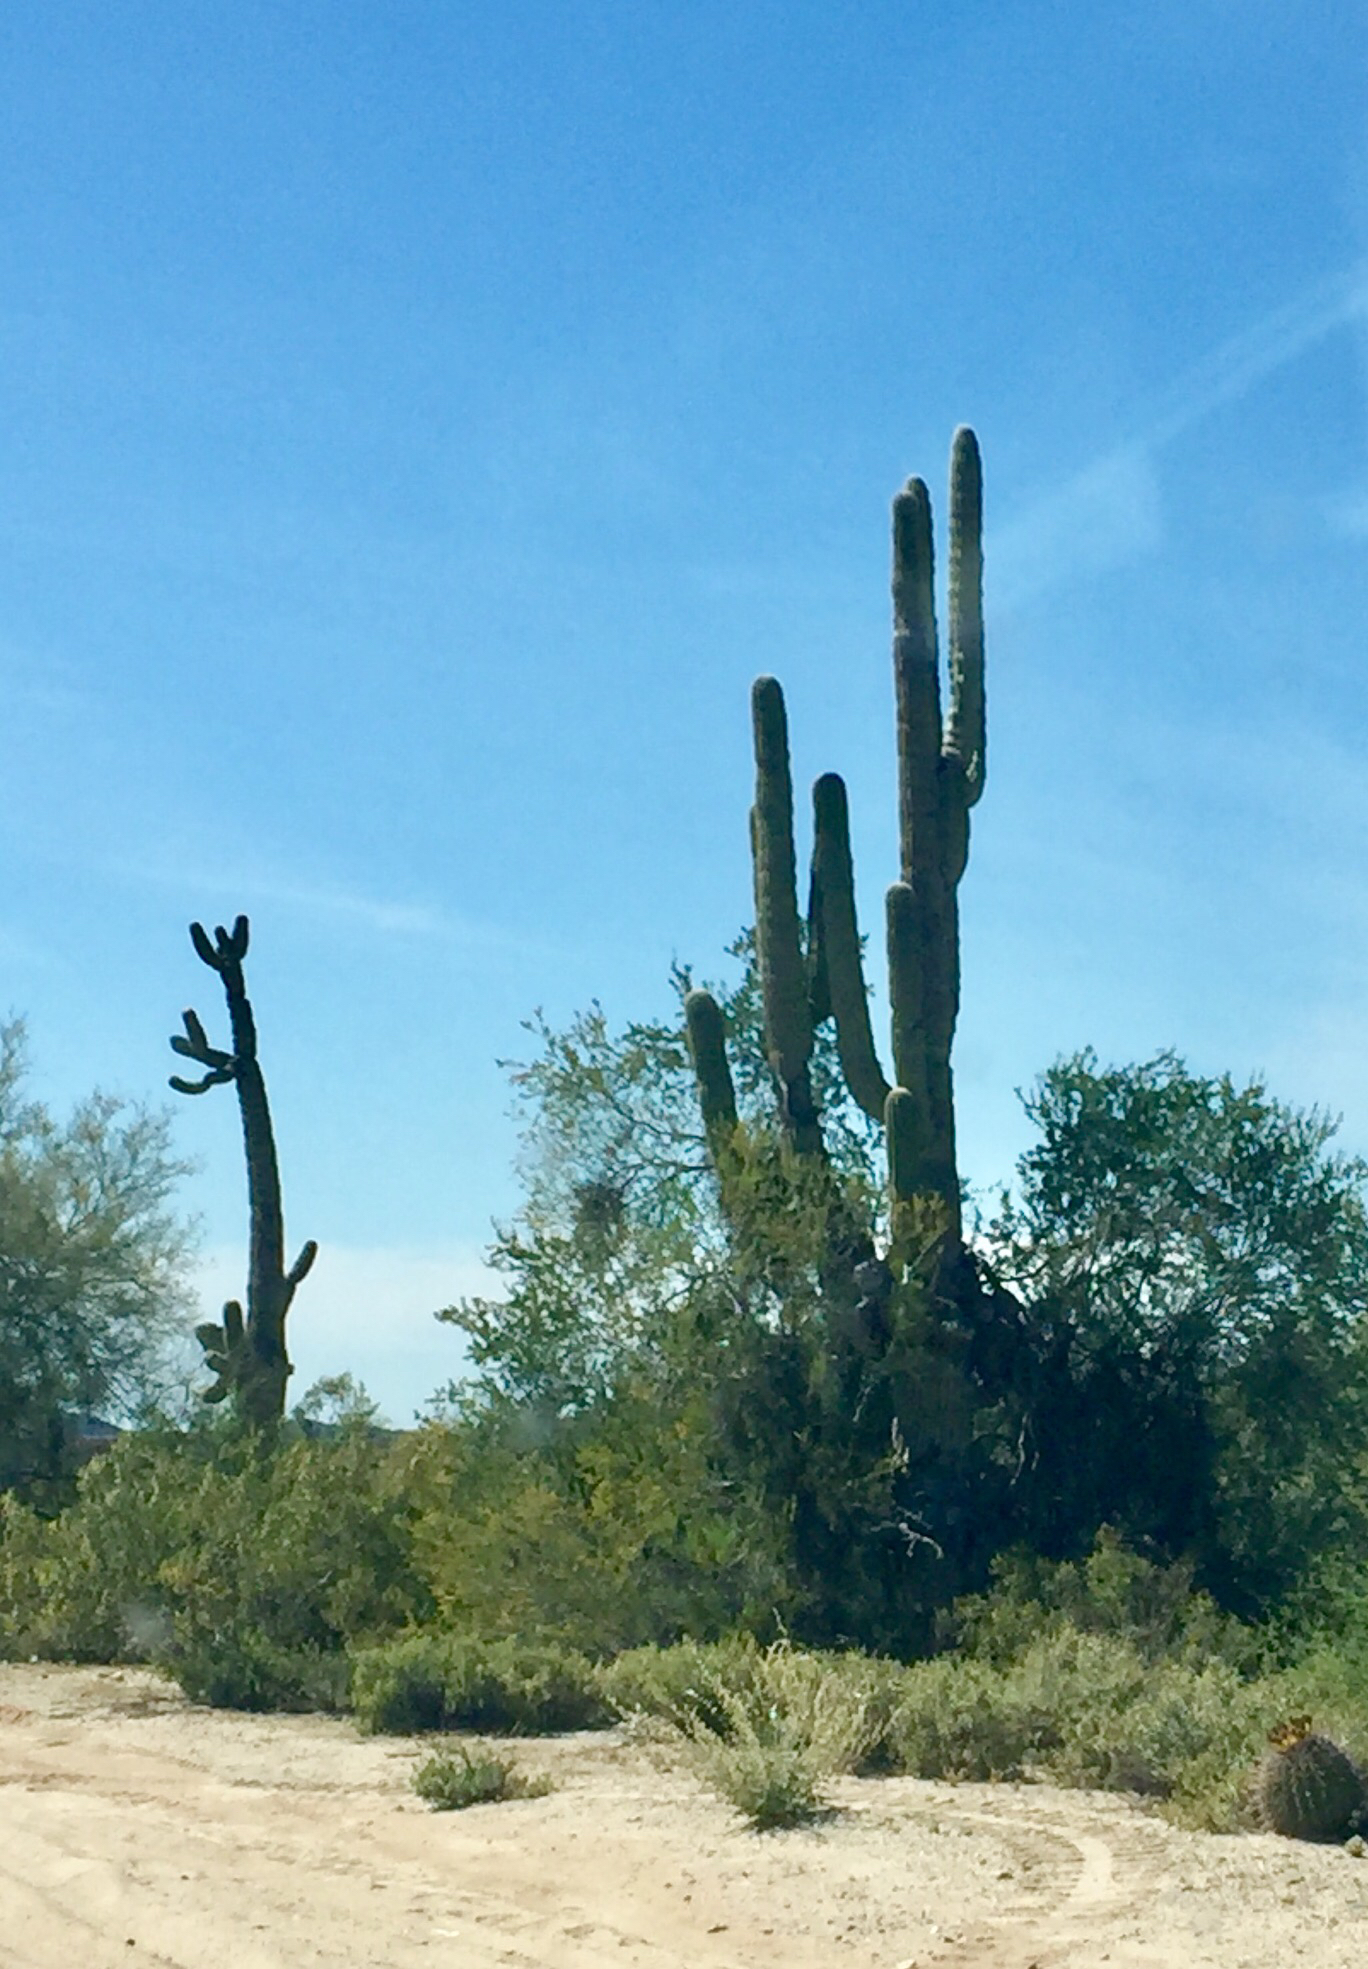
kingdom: Plantae
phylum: Tracheophyta
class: Magnoliopsida
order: Caryophyllales
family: Cactaceae
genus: Carnegiea
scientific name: Carnegiea gigantea
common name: Saguaro
